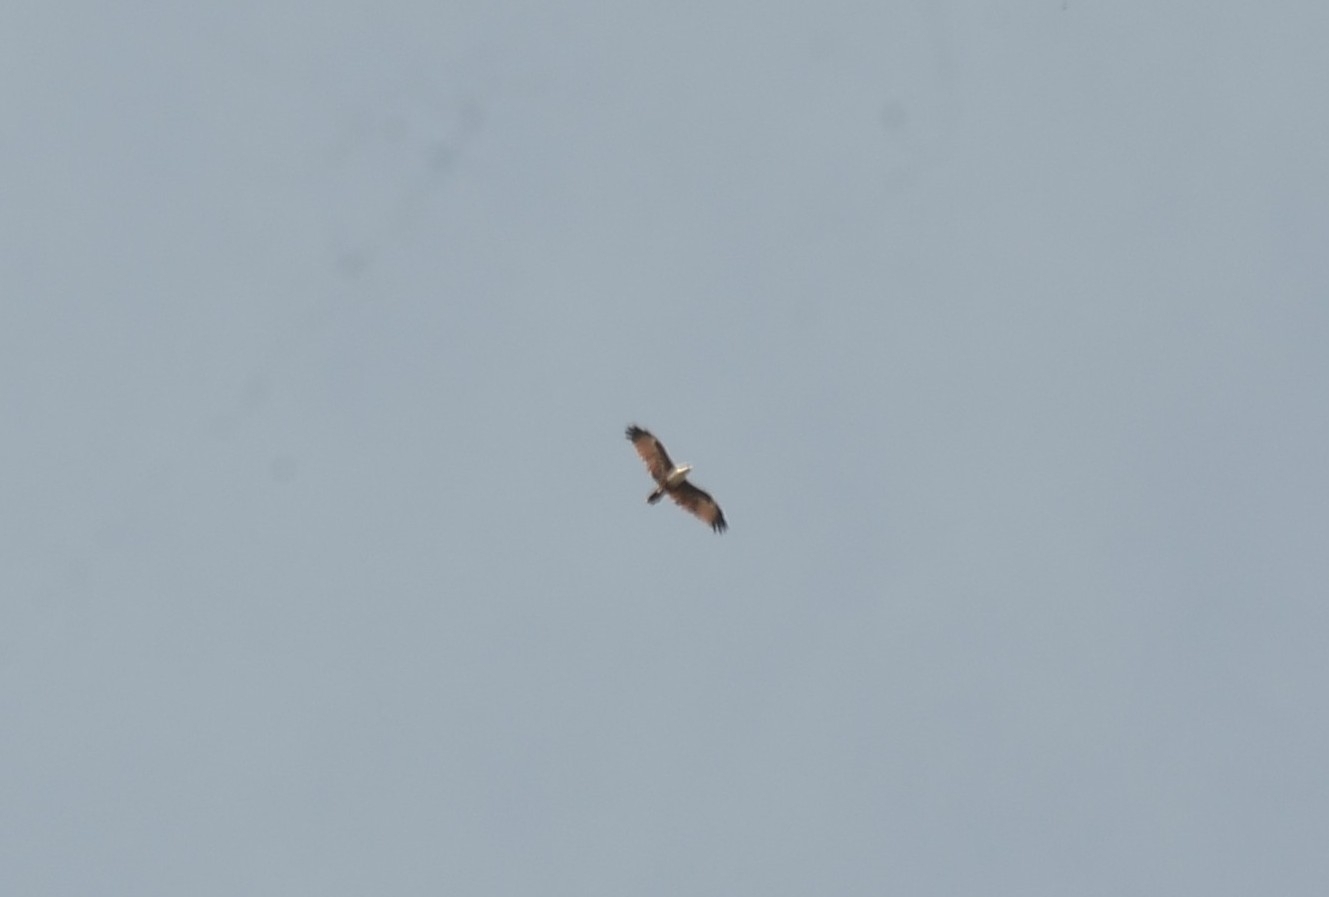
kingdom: Animalia
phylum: Chordata
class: Aves
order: Accipitriformes
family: Accipitridae
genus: Haliastur
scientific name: Haliastur indus
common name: Brahminy kite
